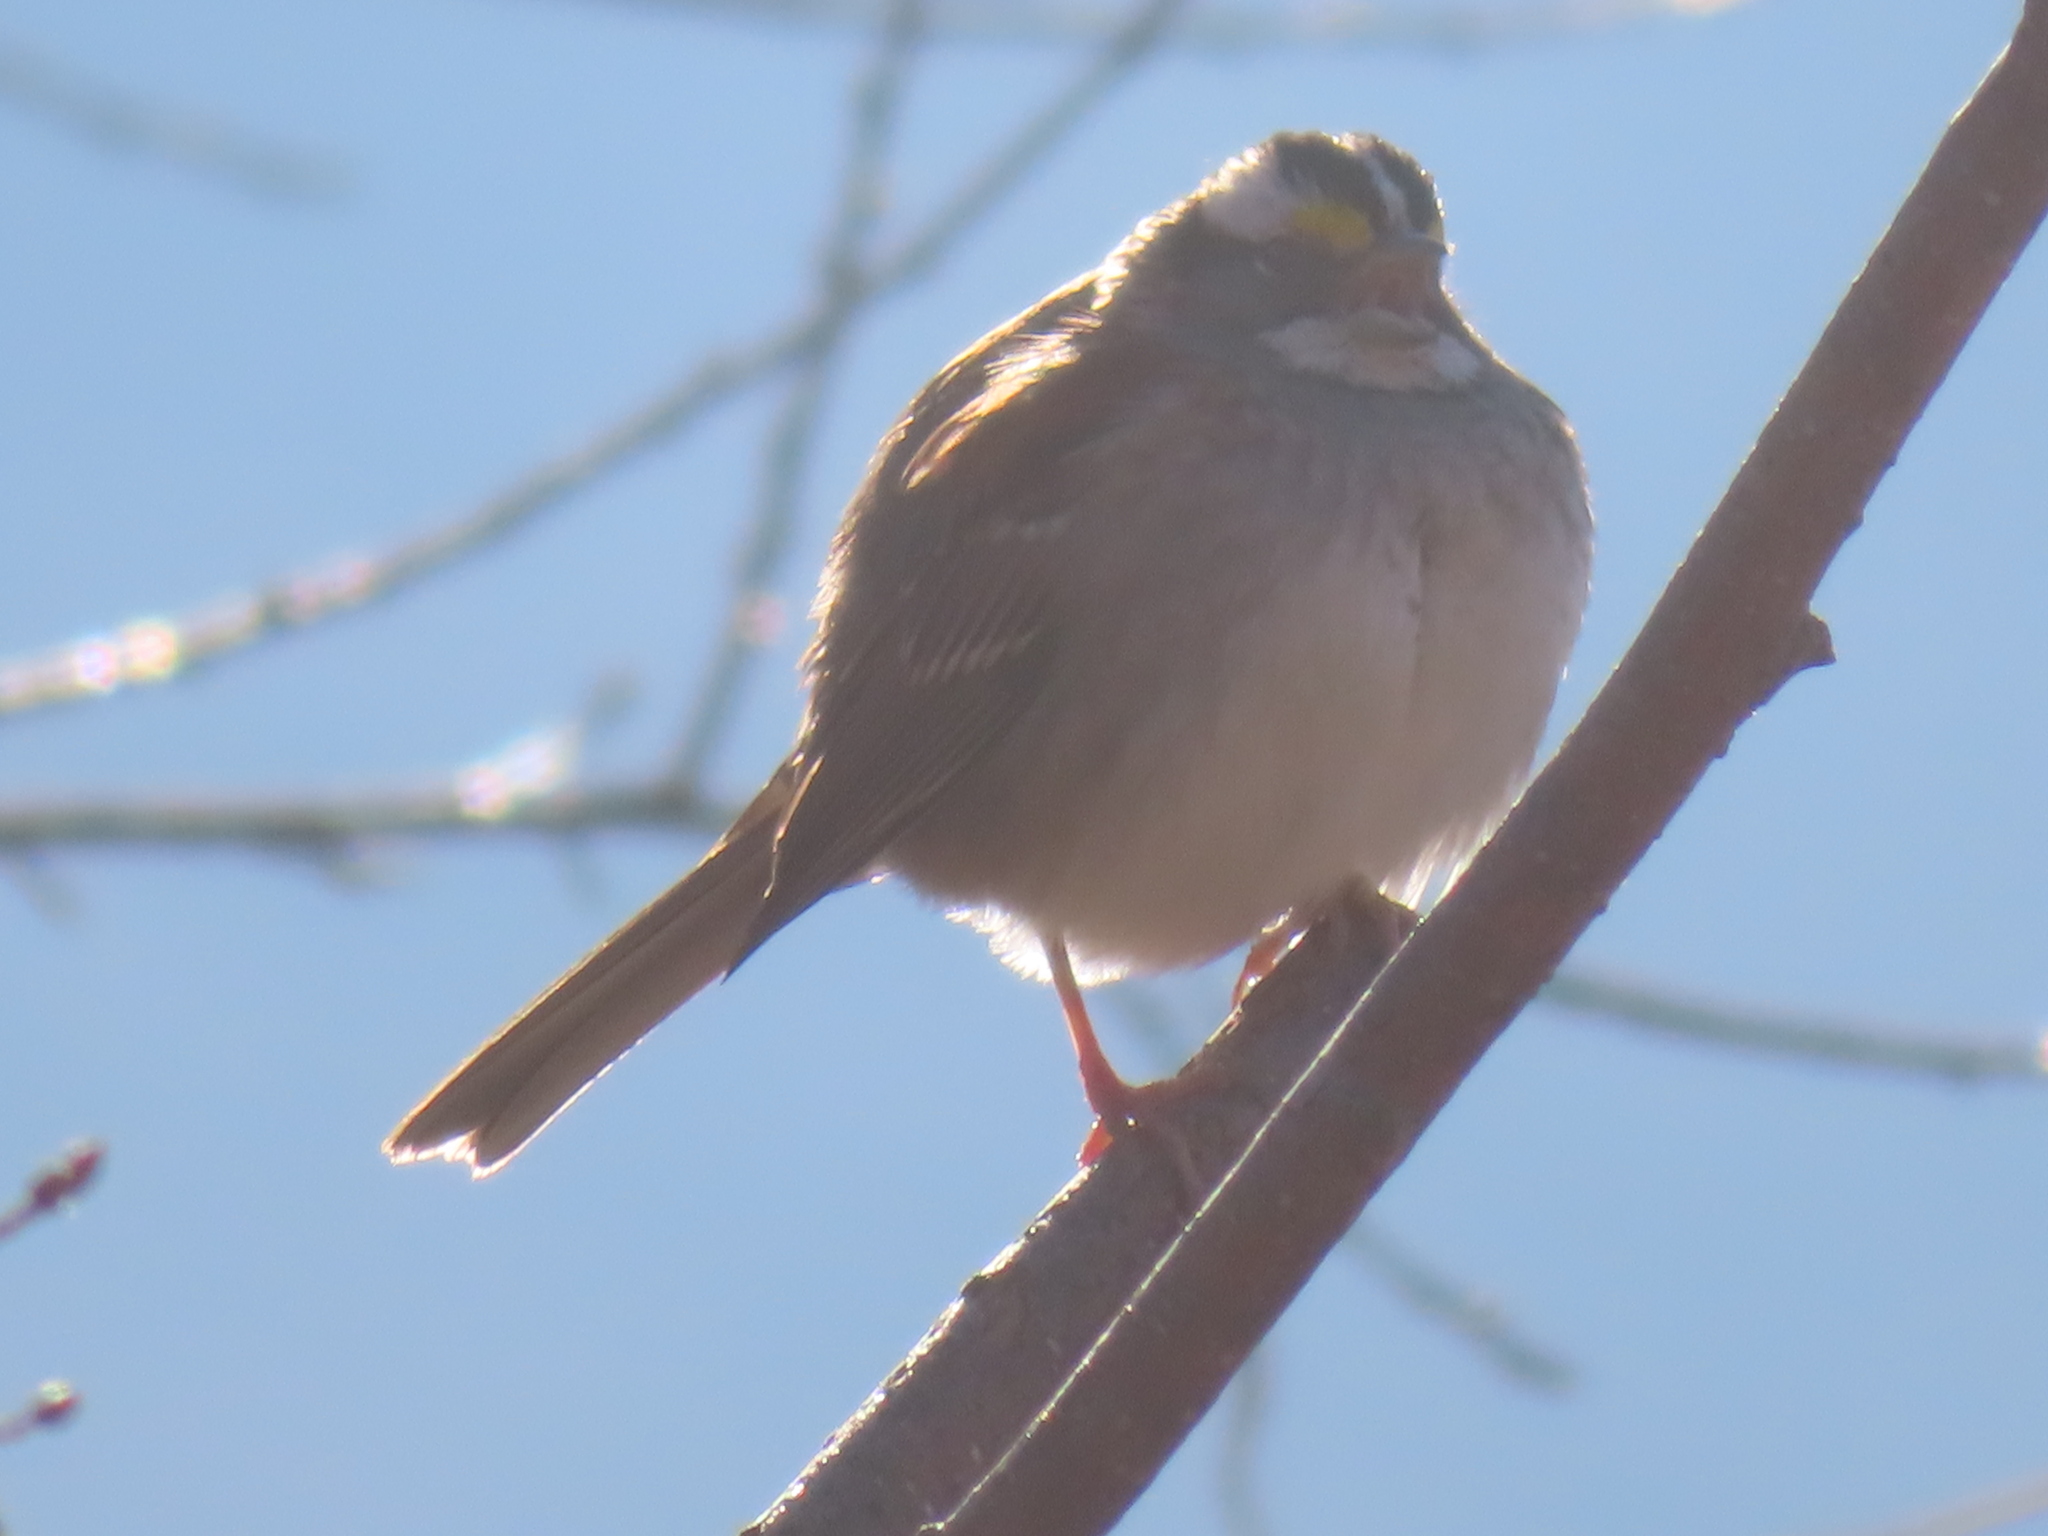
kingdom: Animalia
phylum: Chordata
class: Aves
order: Passeriformes
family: Passerellidae
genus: Zonotrichia
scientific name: Zonotrichia albicollis
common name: White-throated sparrow
